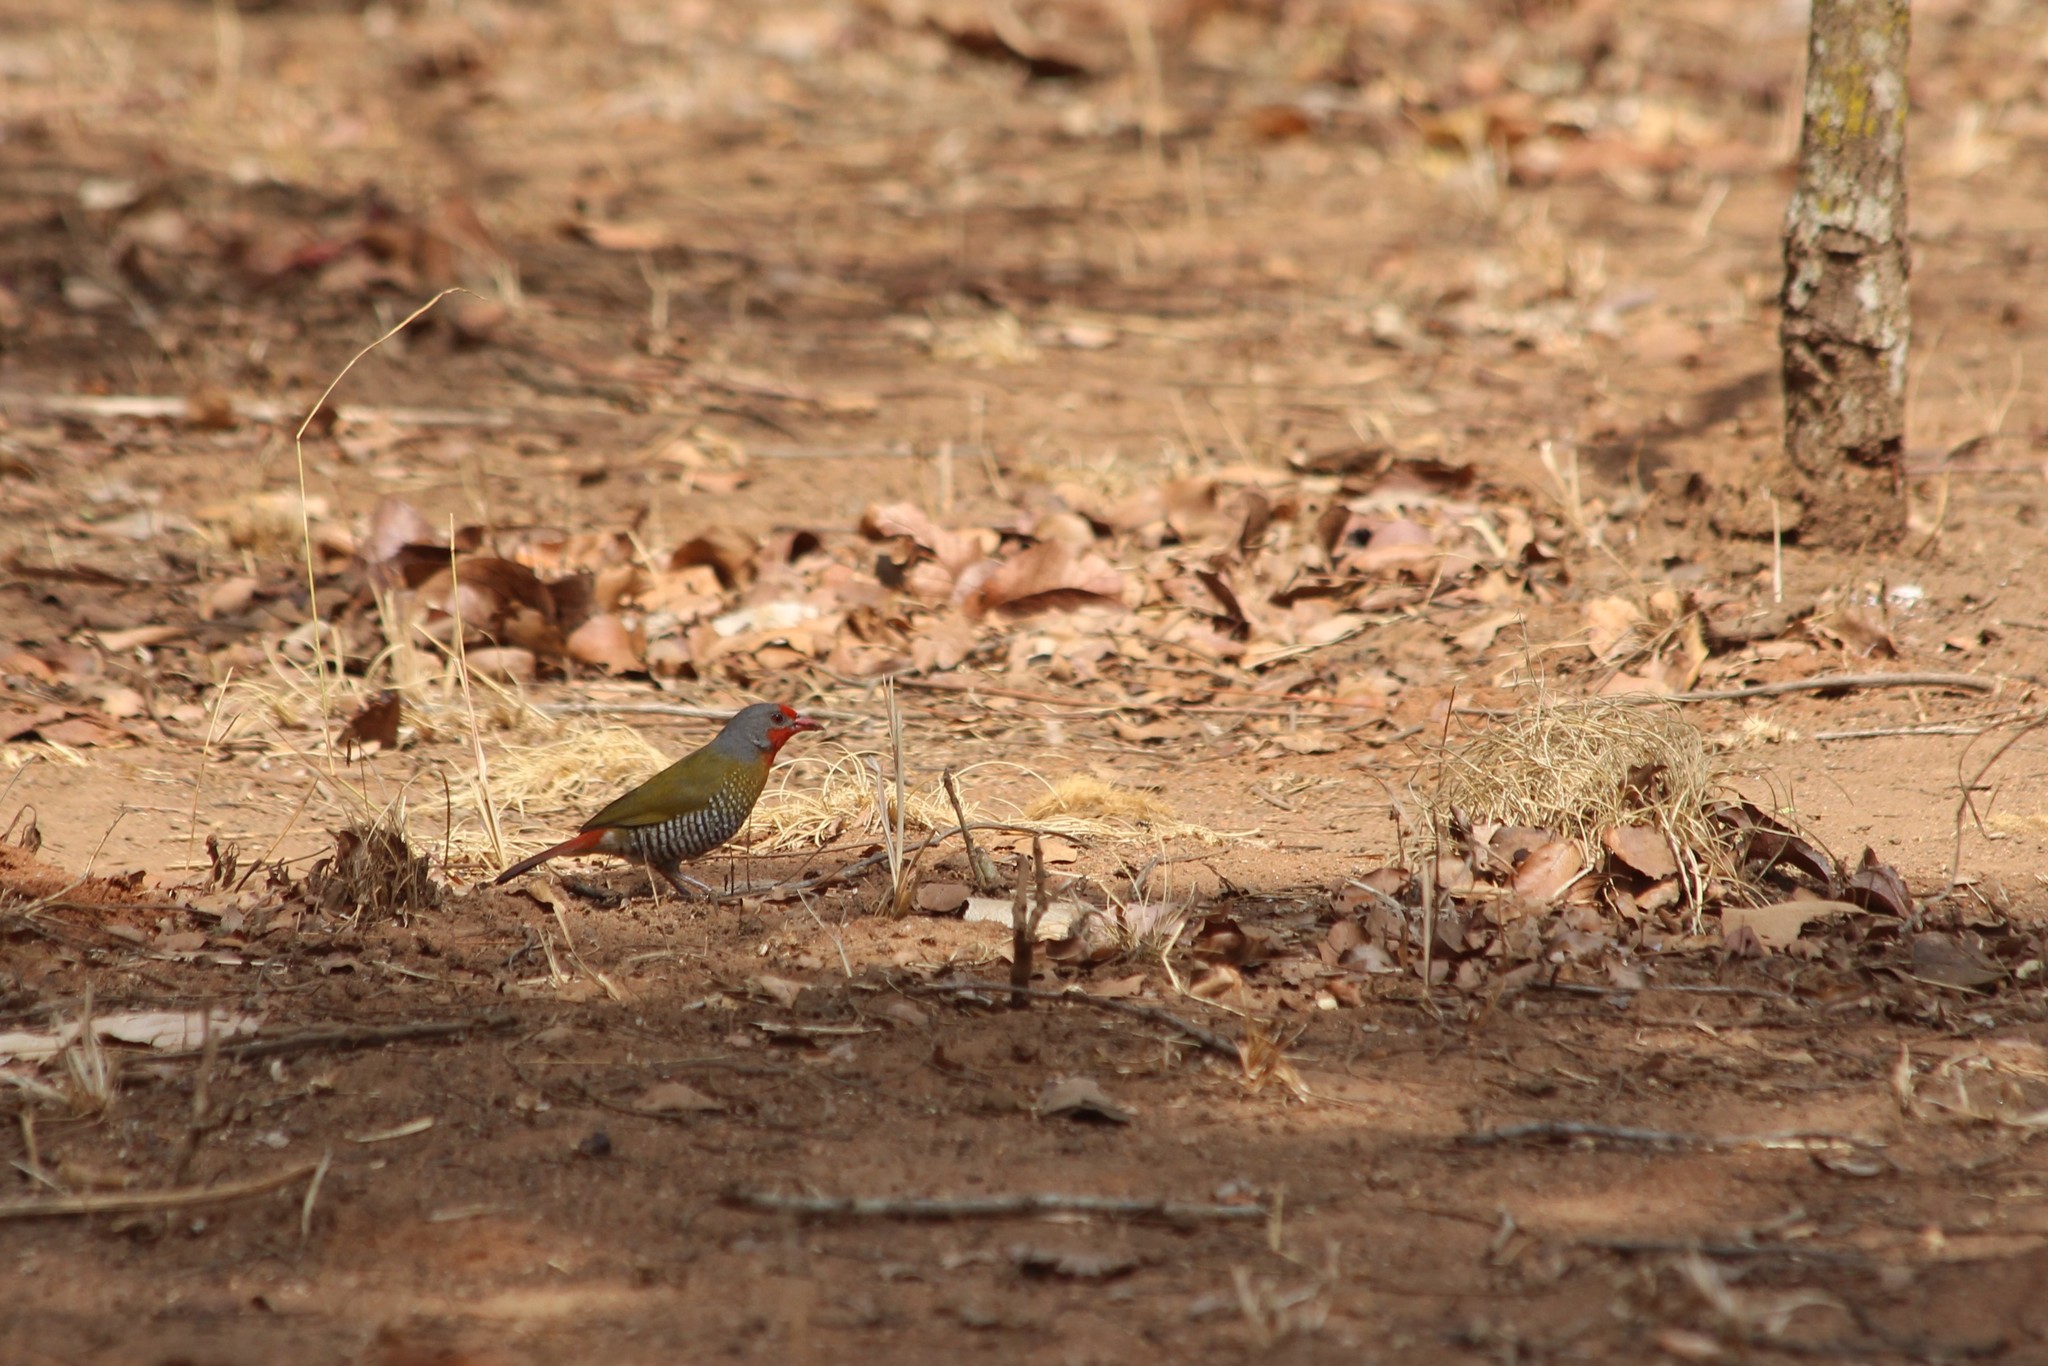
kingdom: Animalia
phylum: Chordata
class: Aves
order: Passeriformes
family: Estrildidae
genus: Pytilia
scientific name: Pytilia melba
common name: Green-winged pytilia
